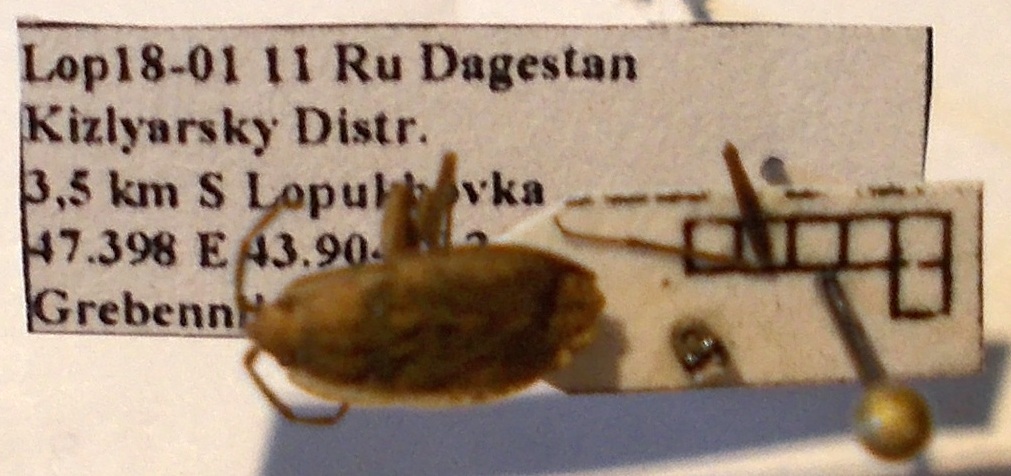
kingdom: Animalia
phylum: Arthropoda
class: Insecta
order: Hemiptera
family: Rhyparochromidae
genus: Emblethis
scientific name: Emblethis dilaticollis
